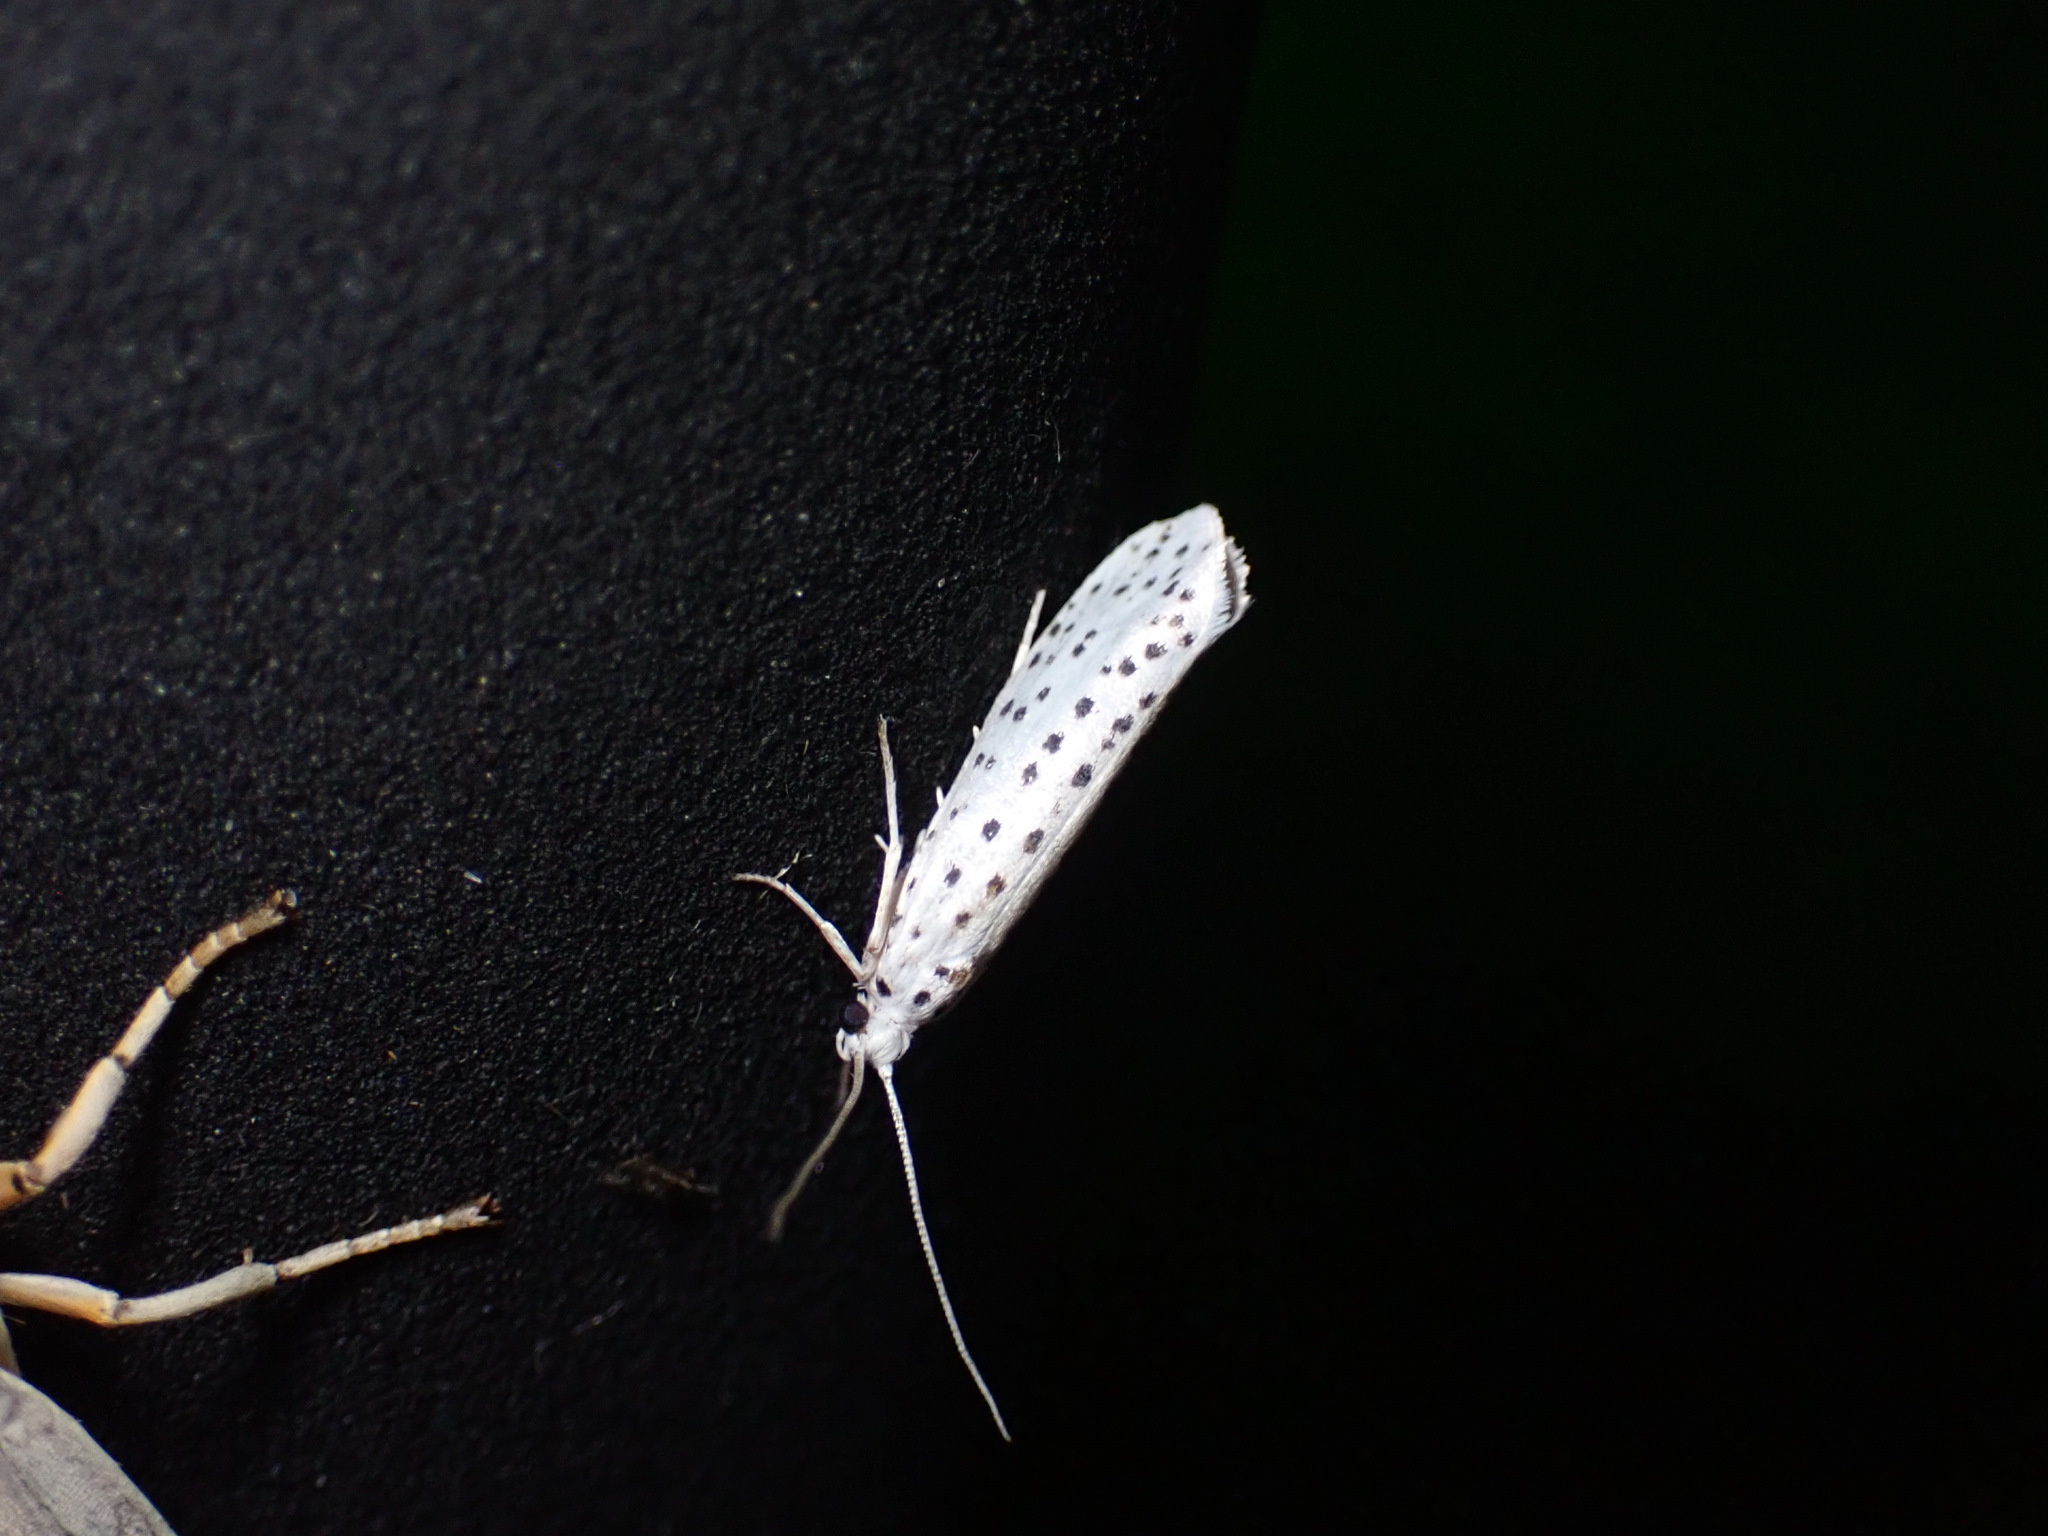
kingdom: Animalia
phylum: Arthropoda
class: Insecta
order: Lepidoptera
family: Yponomeutidae
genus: Yponomeuta
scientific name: Yponomeuta multipunctella
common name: American ermine moth
